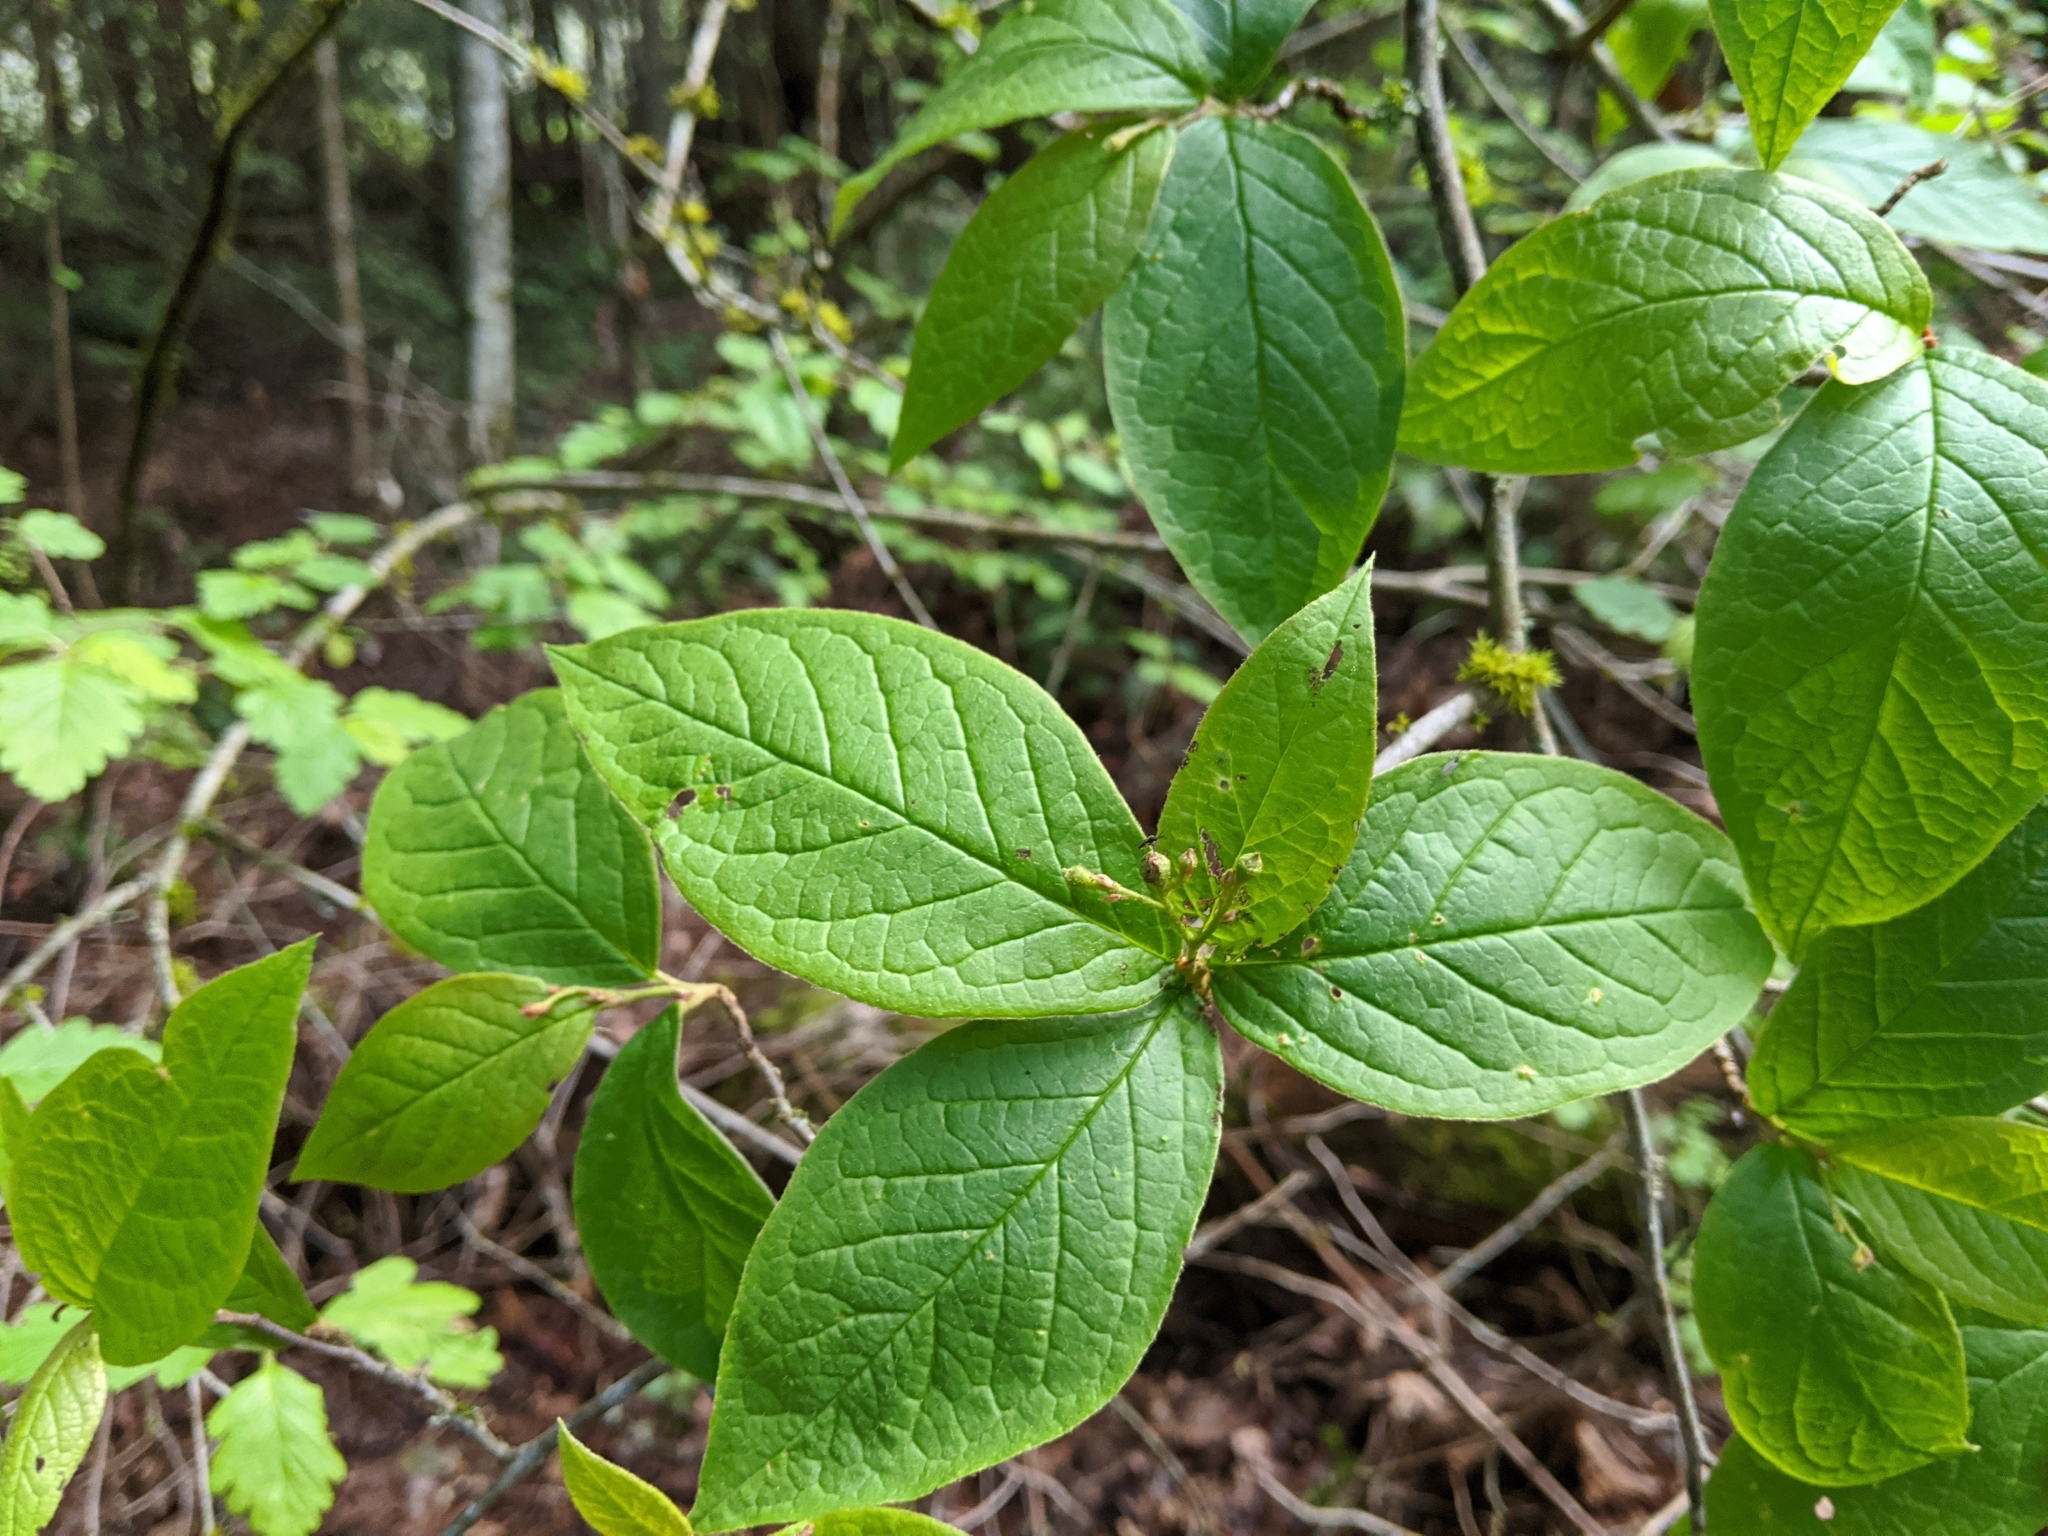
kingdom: Plantae
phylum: Tracheophyta
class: Magnoliopsida
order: Rosales
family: Rosaceae
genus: Cotoneaster
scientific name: Cotoneaster bullatus
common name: Hollyberry cotoneaster
